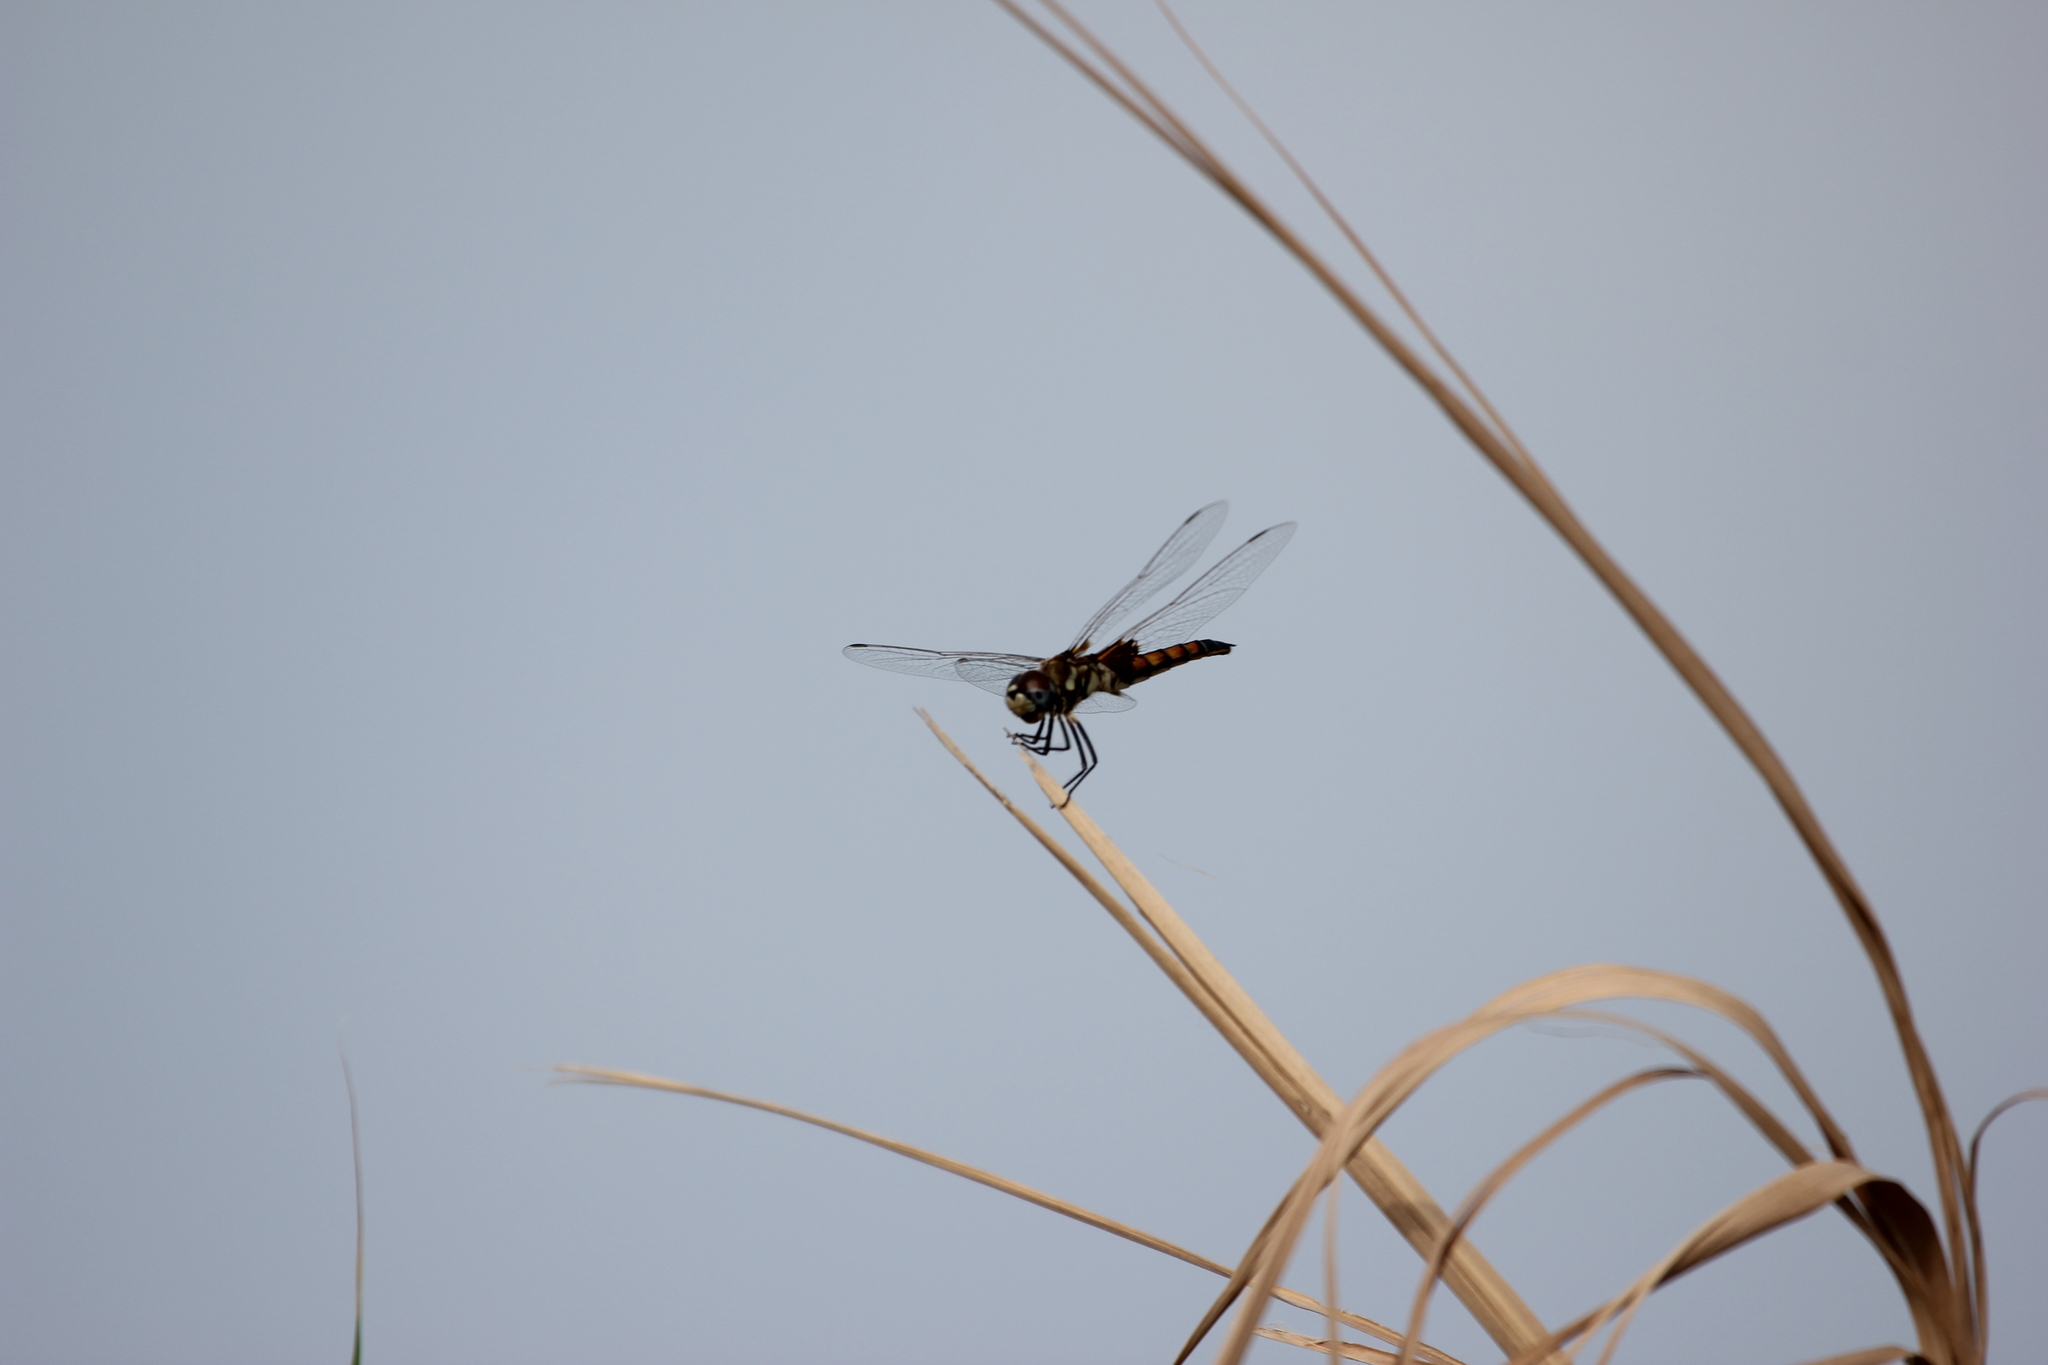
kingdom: Animalia
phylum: Arthropoda
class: Insecta
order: Odonata
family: Libellulidae
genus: Macrodiplax
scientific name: Macrodiplax balteata
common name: Marl pennant
